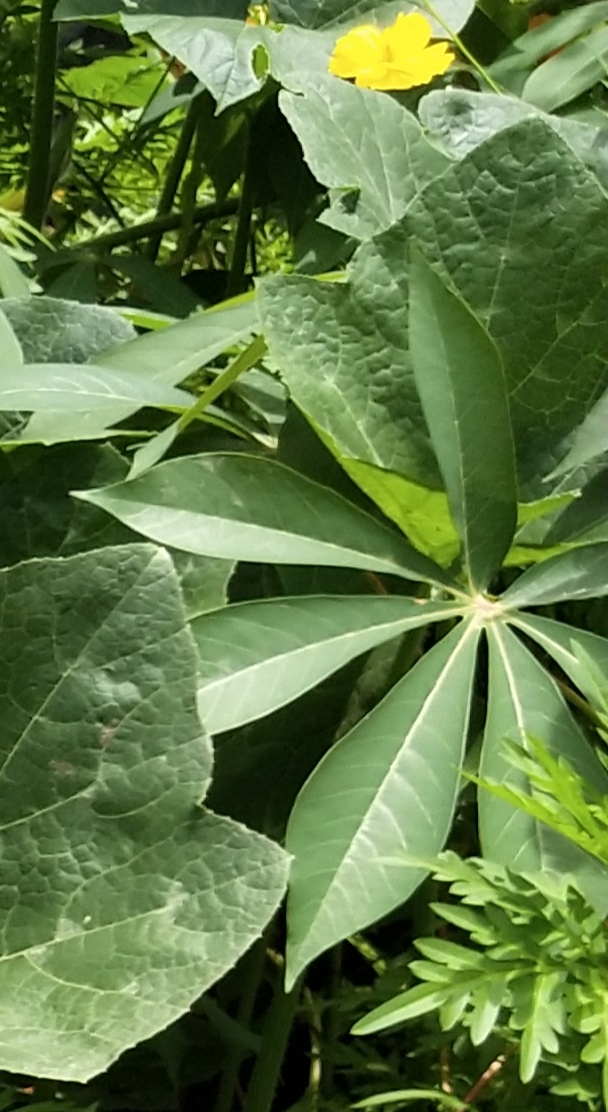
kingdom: Plantae
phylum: Tracheophyta
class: Magnoliopsida
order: Malpighiales
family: Euphorbiaceae
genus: Manihot
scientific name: Manihot esculenta
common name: Cassava
